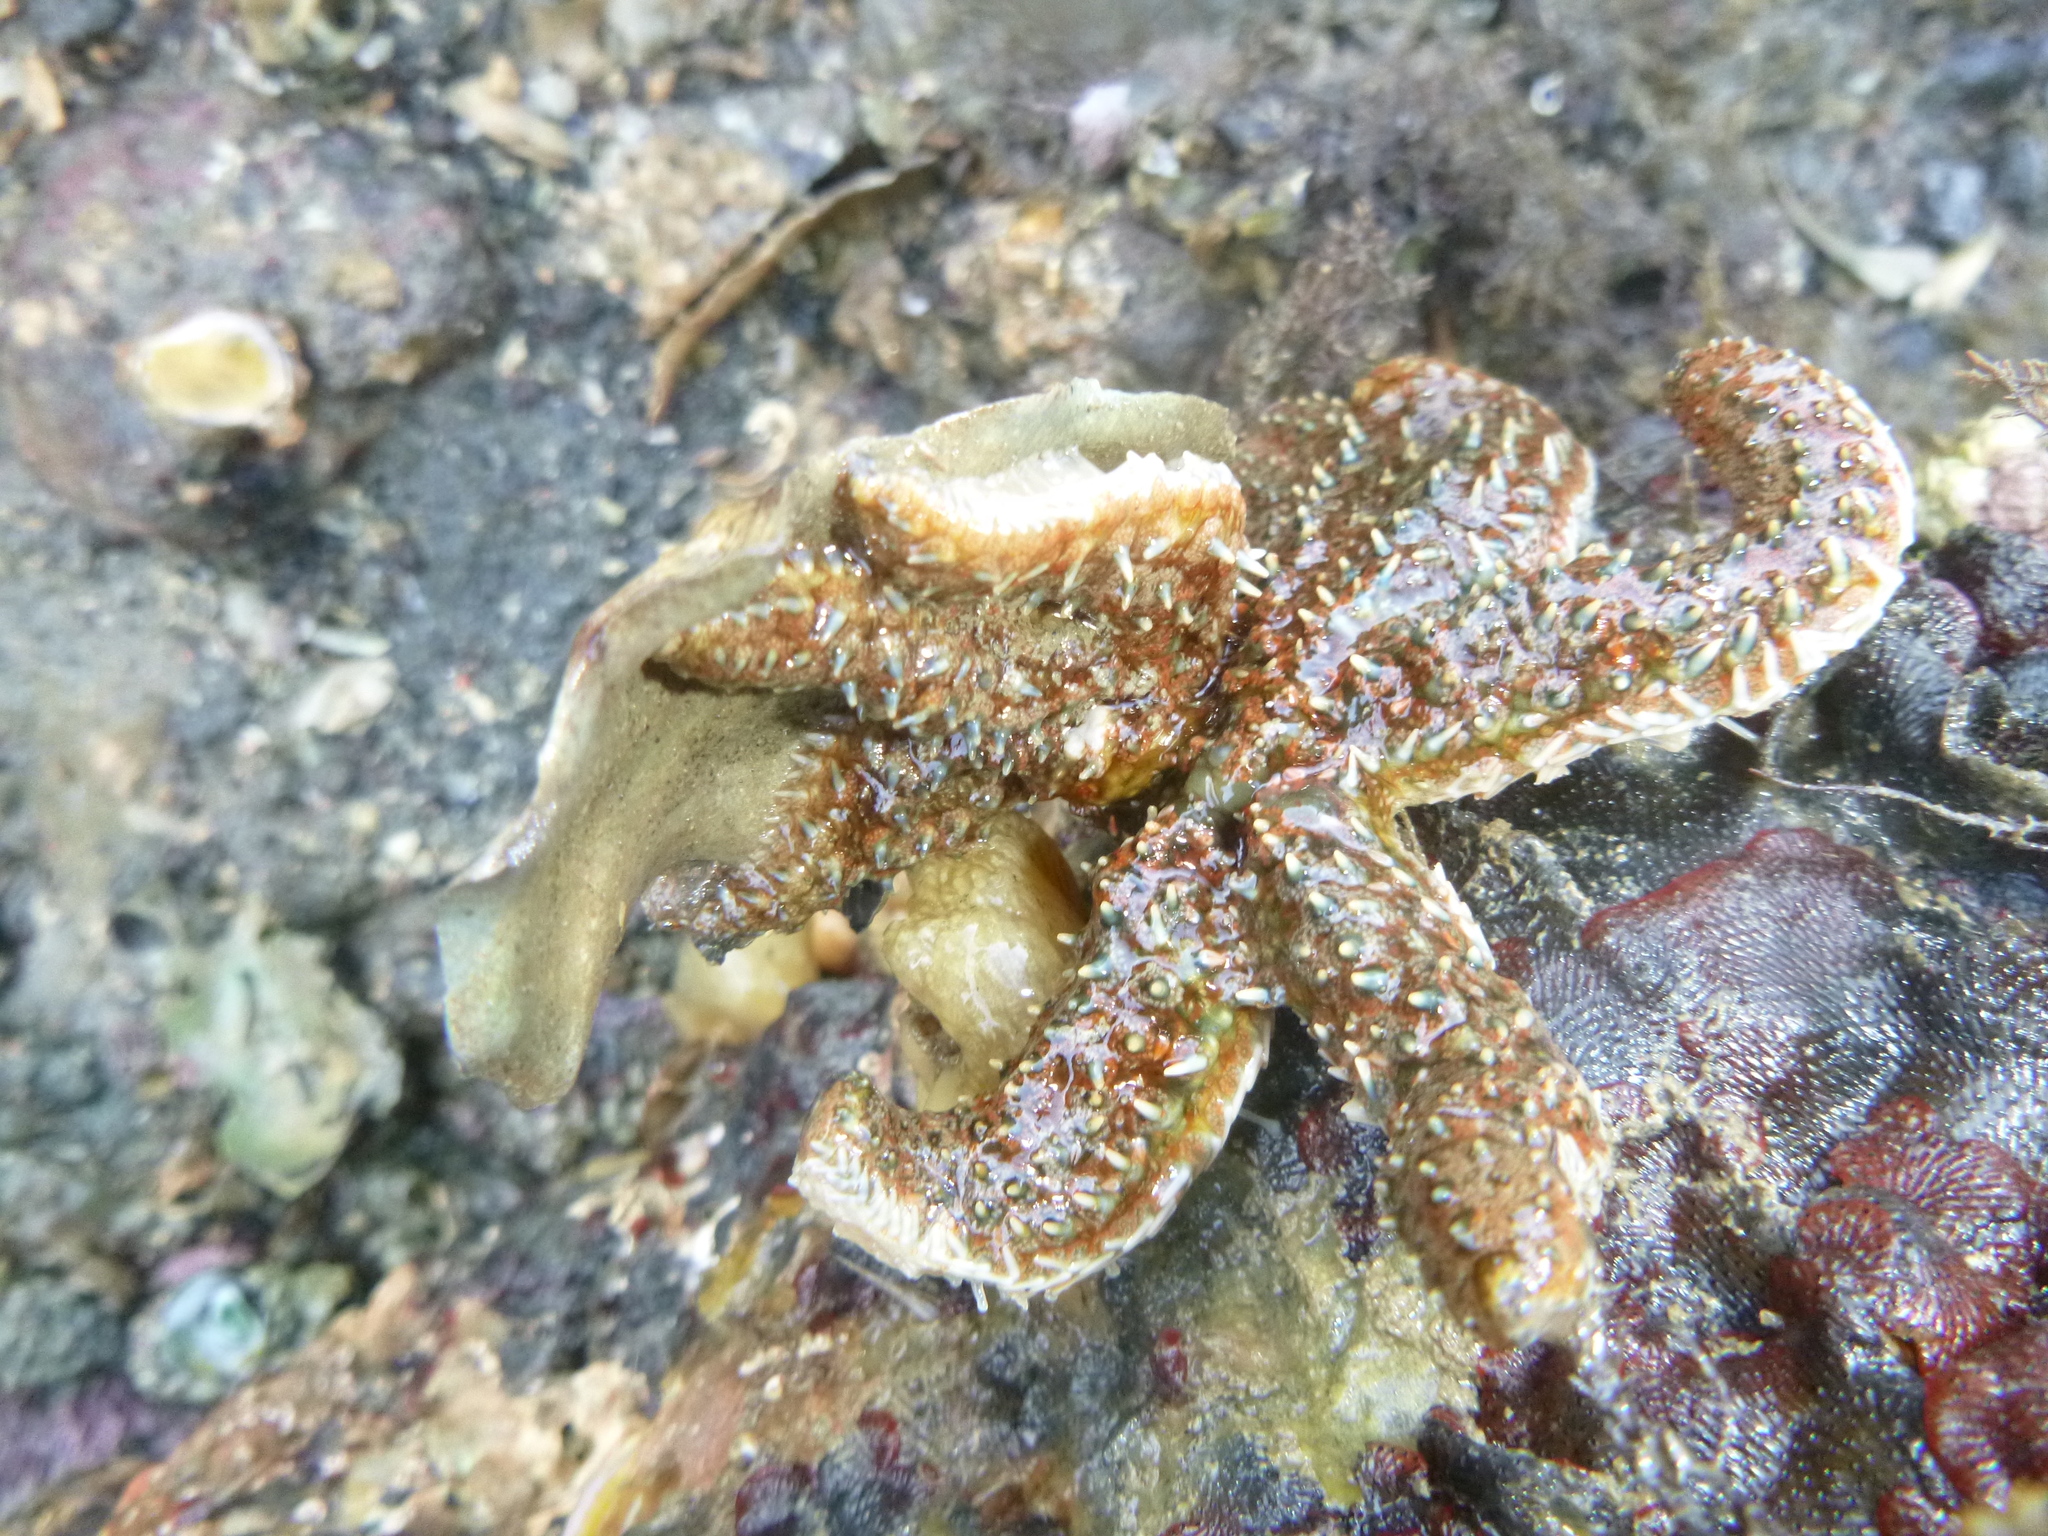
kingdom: Animalia
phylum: Echinodermata
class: Asteroidea
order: Forcipulatida
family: Asteriidae
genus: Coscinasterias
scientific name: Coscinasterias muricata
